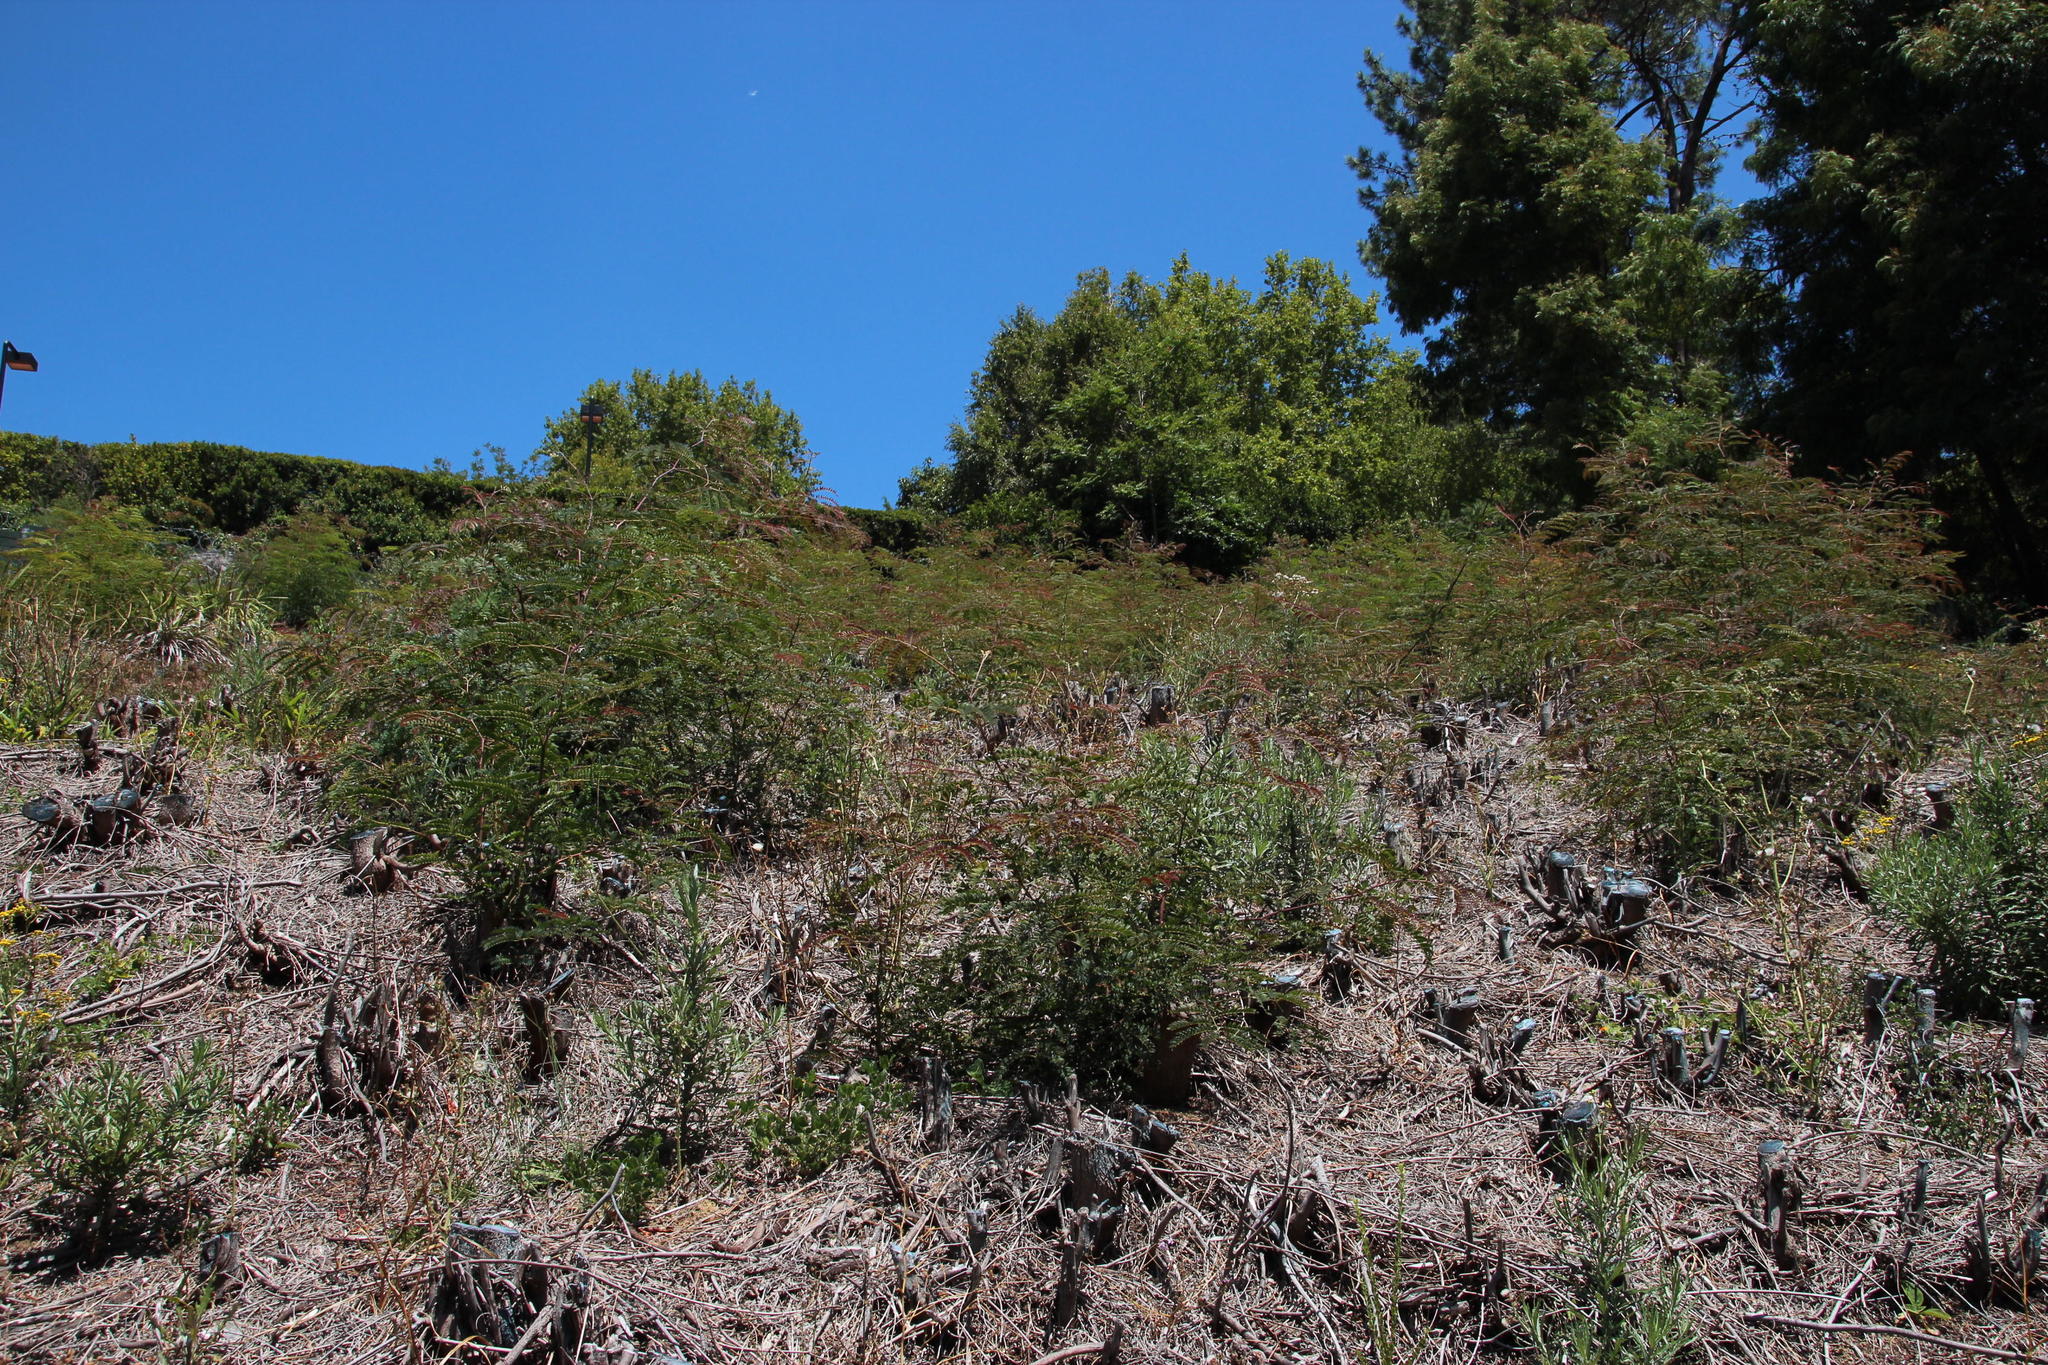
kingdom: Plantae
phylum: Tracheophyta
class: Magnoliopsida
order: Fabales
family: Fabaceae
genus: Acacia
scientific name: Acacia elata
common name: Cedar wattle
